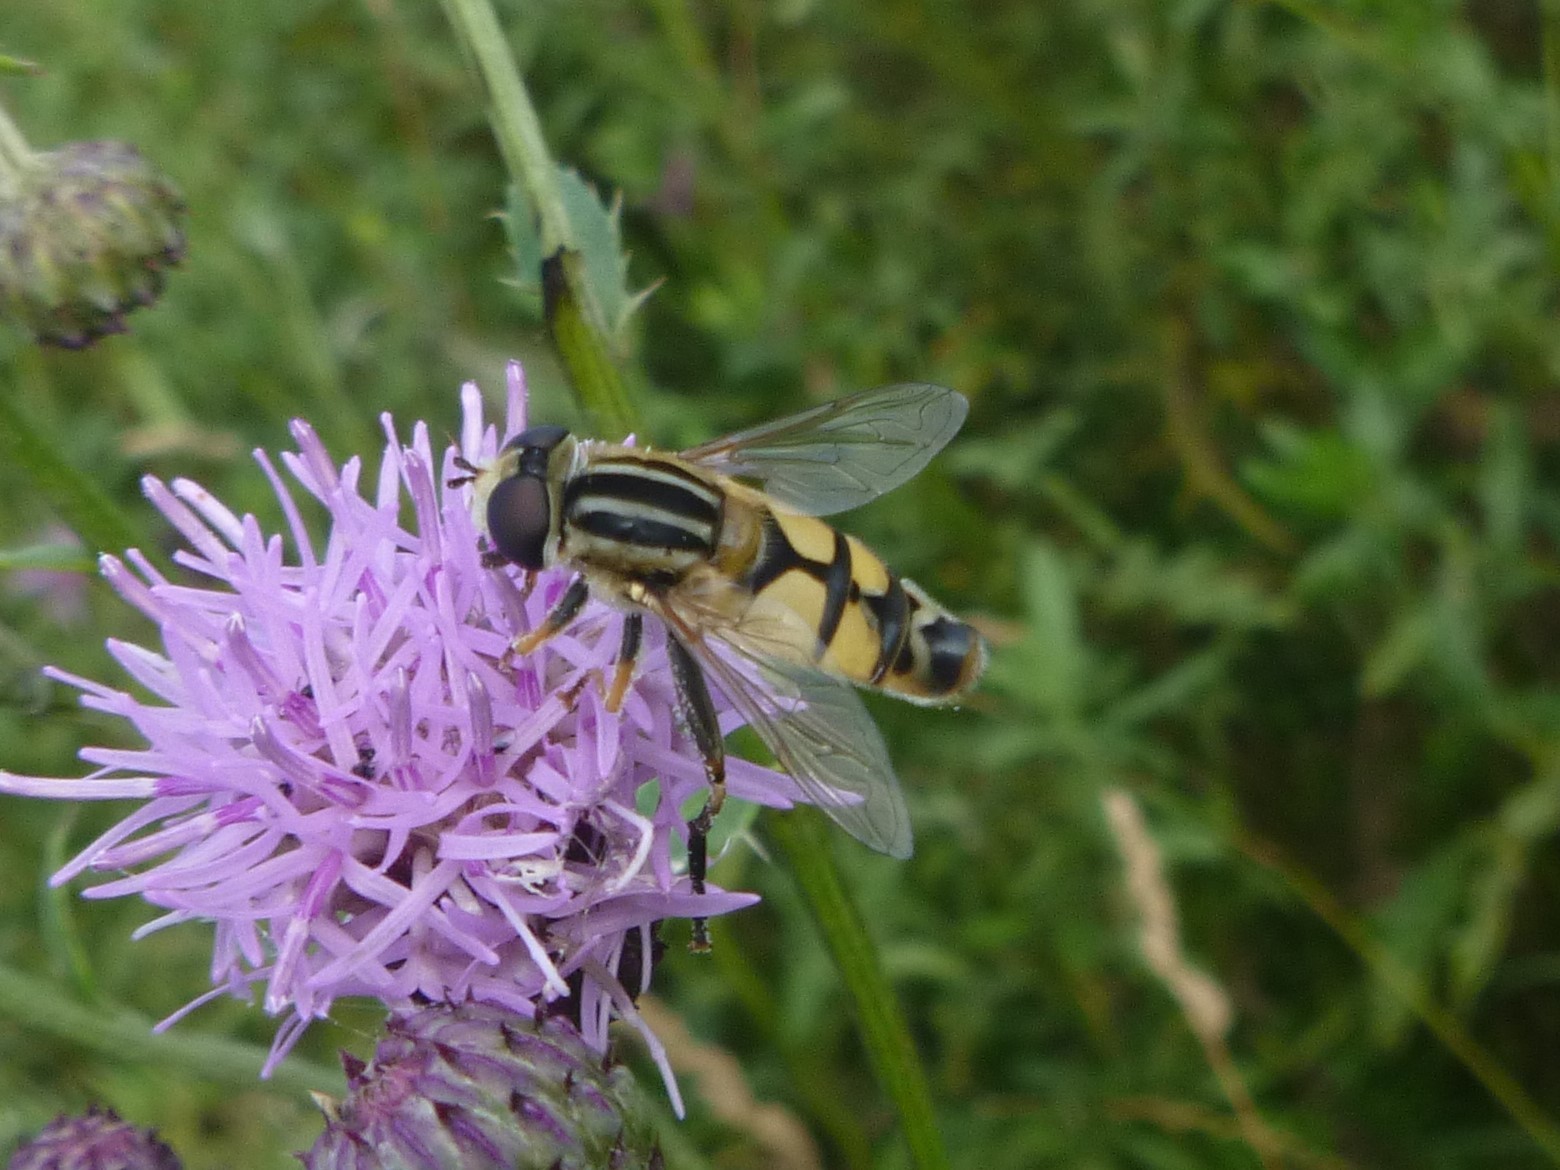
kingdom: Animalia
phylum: Arthropoda
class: Insecta
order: Diptera
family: Syrphidae
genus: Helophilus
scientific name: Helophilus trivittatus
